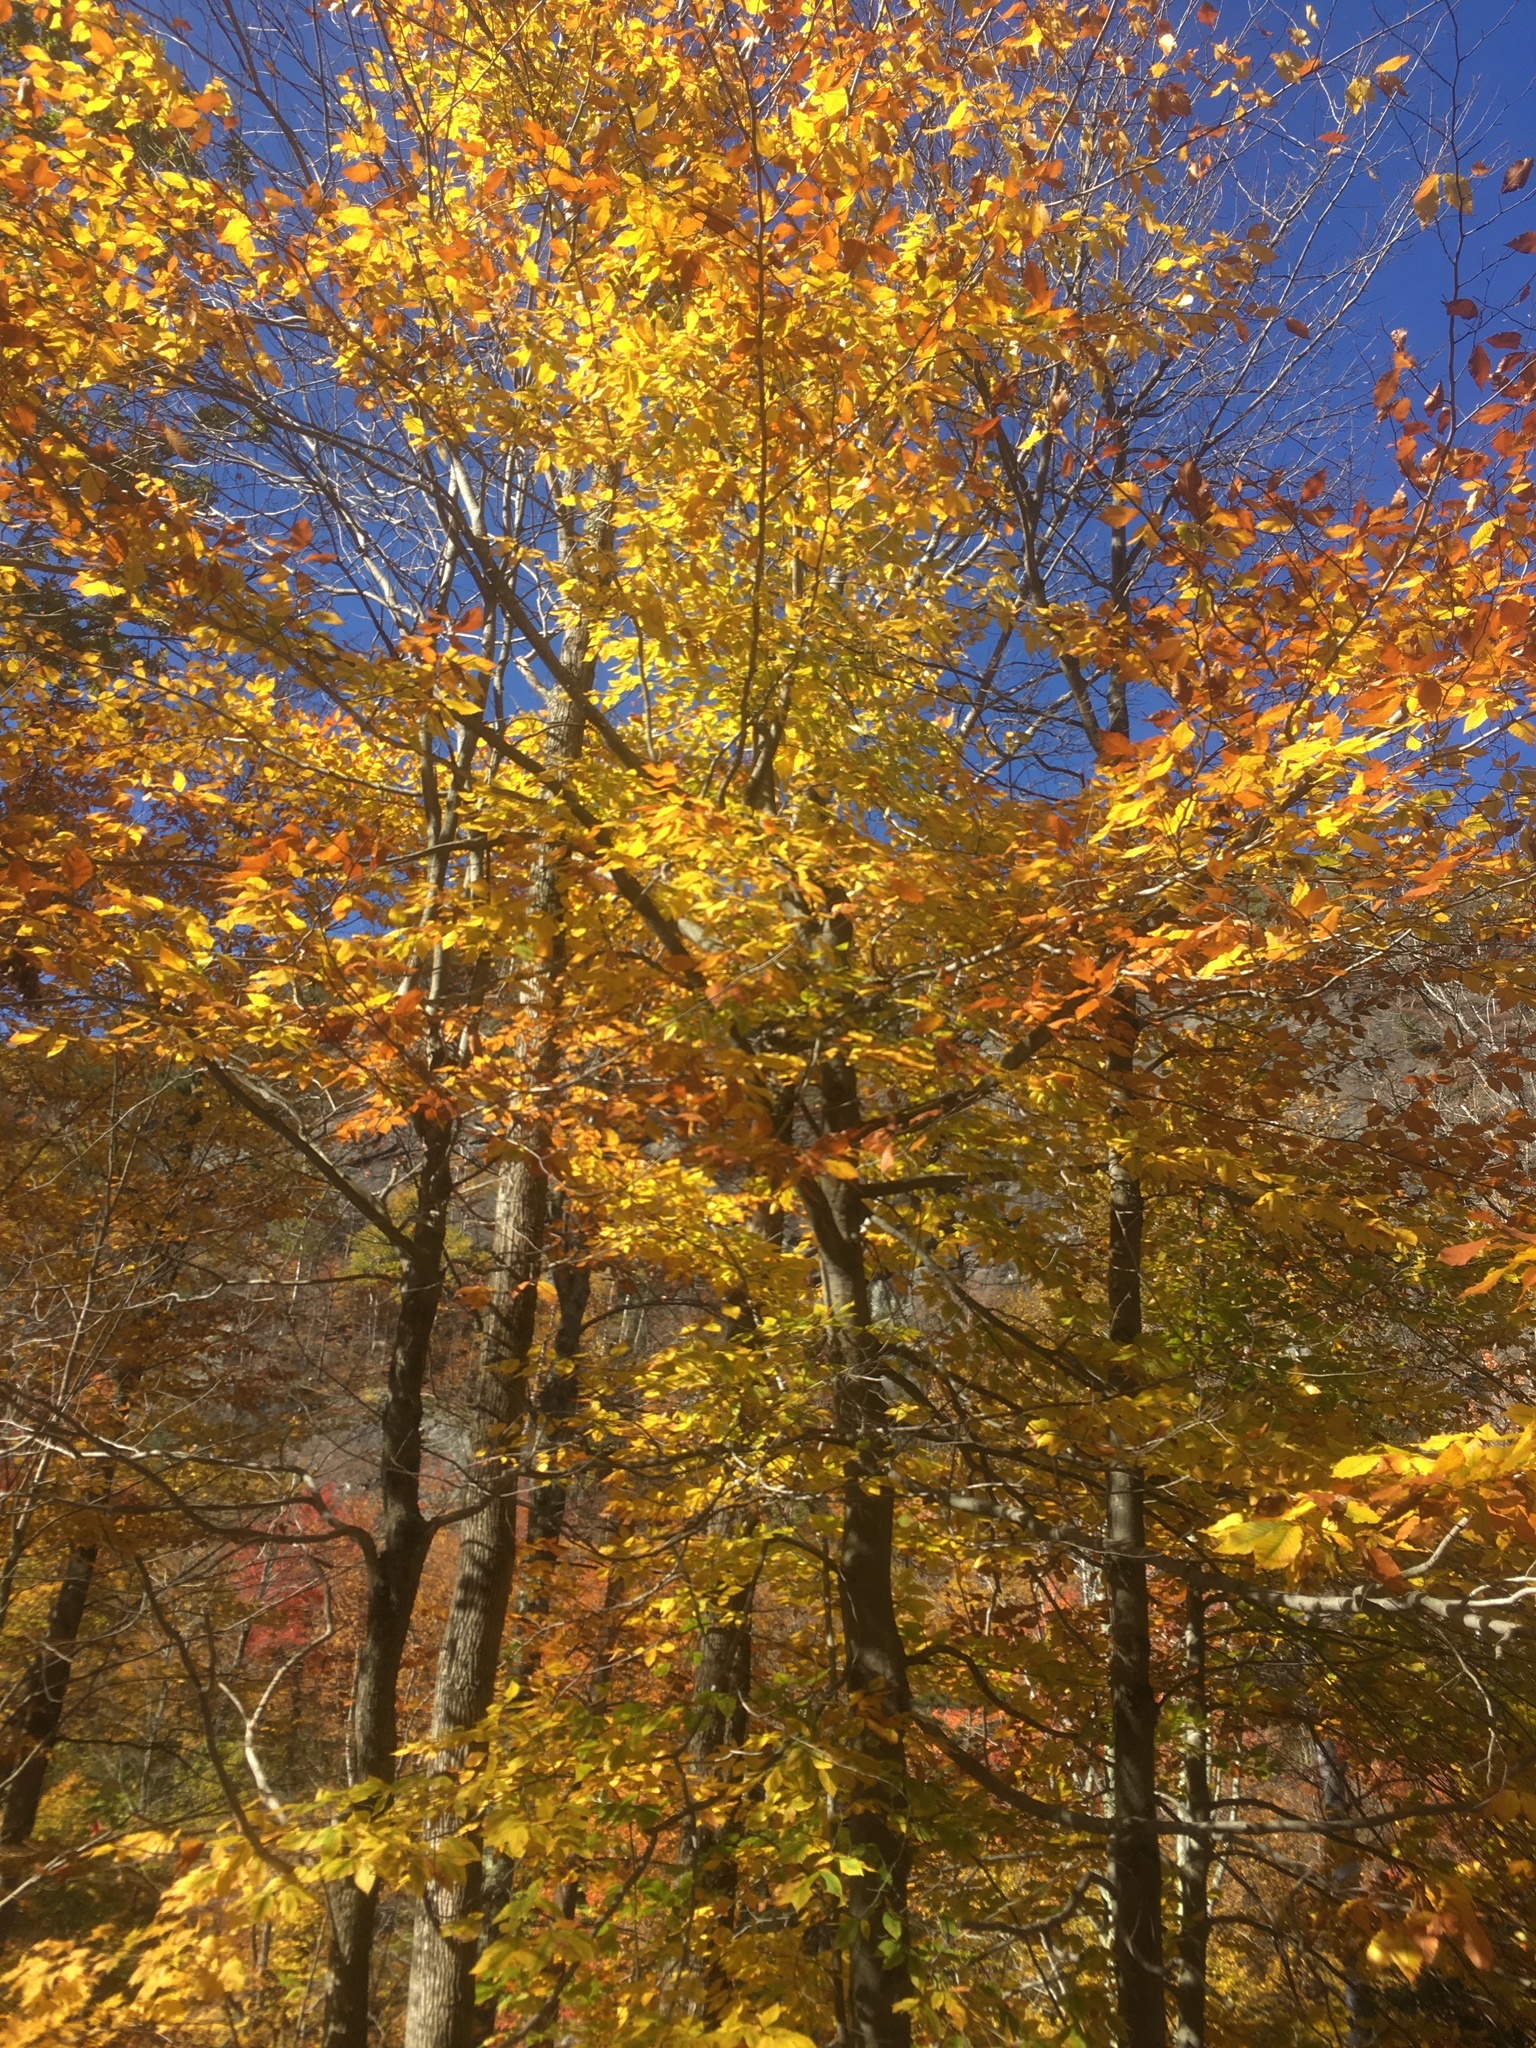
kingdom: Plantae
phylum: Tracheophyta
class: Magnoliopsida
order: Fagales
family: Fagaceae
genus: Fagus
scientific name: Fagus grandifolia
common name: American beech
